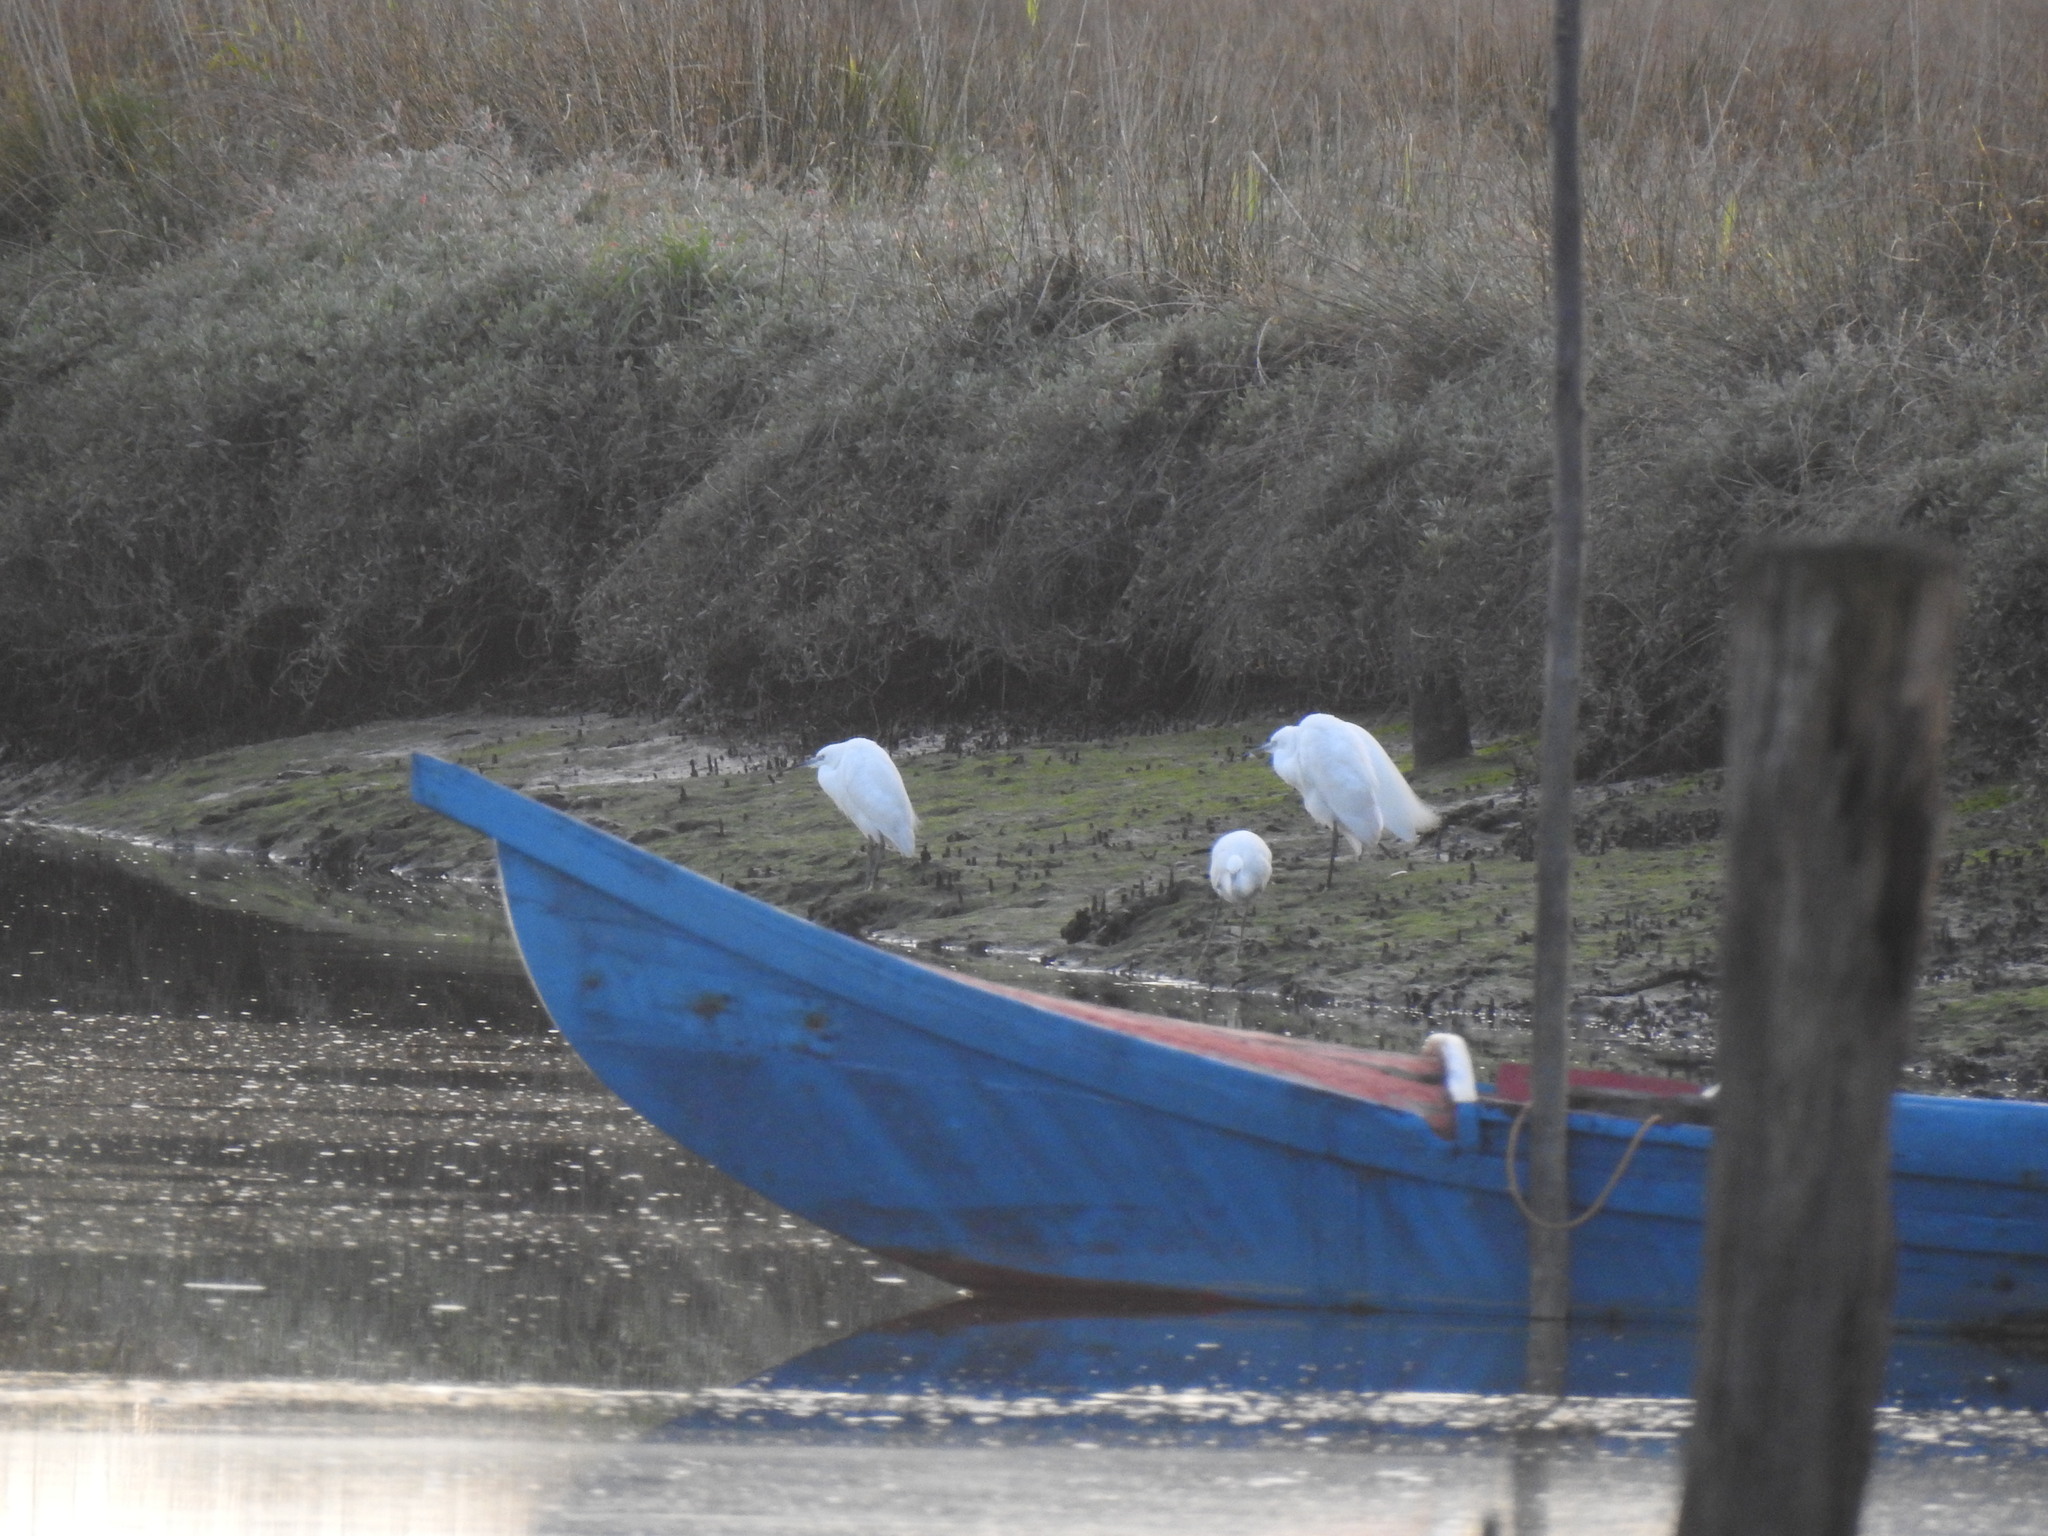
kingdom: Animalia
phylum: Chordata
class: Aves
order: Pelecaniformes
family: Ardeidae
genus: Egretta
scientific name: Egretta garzetta
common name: Little egret
